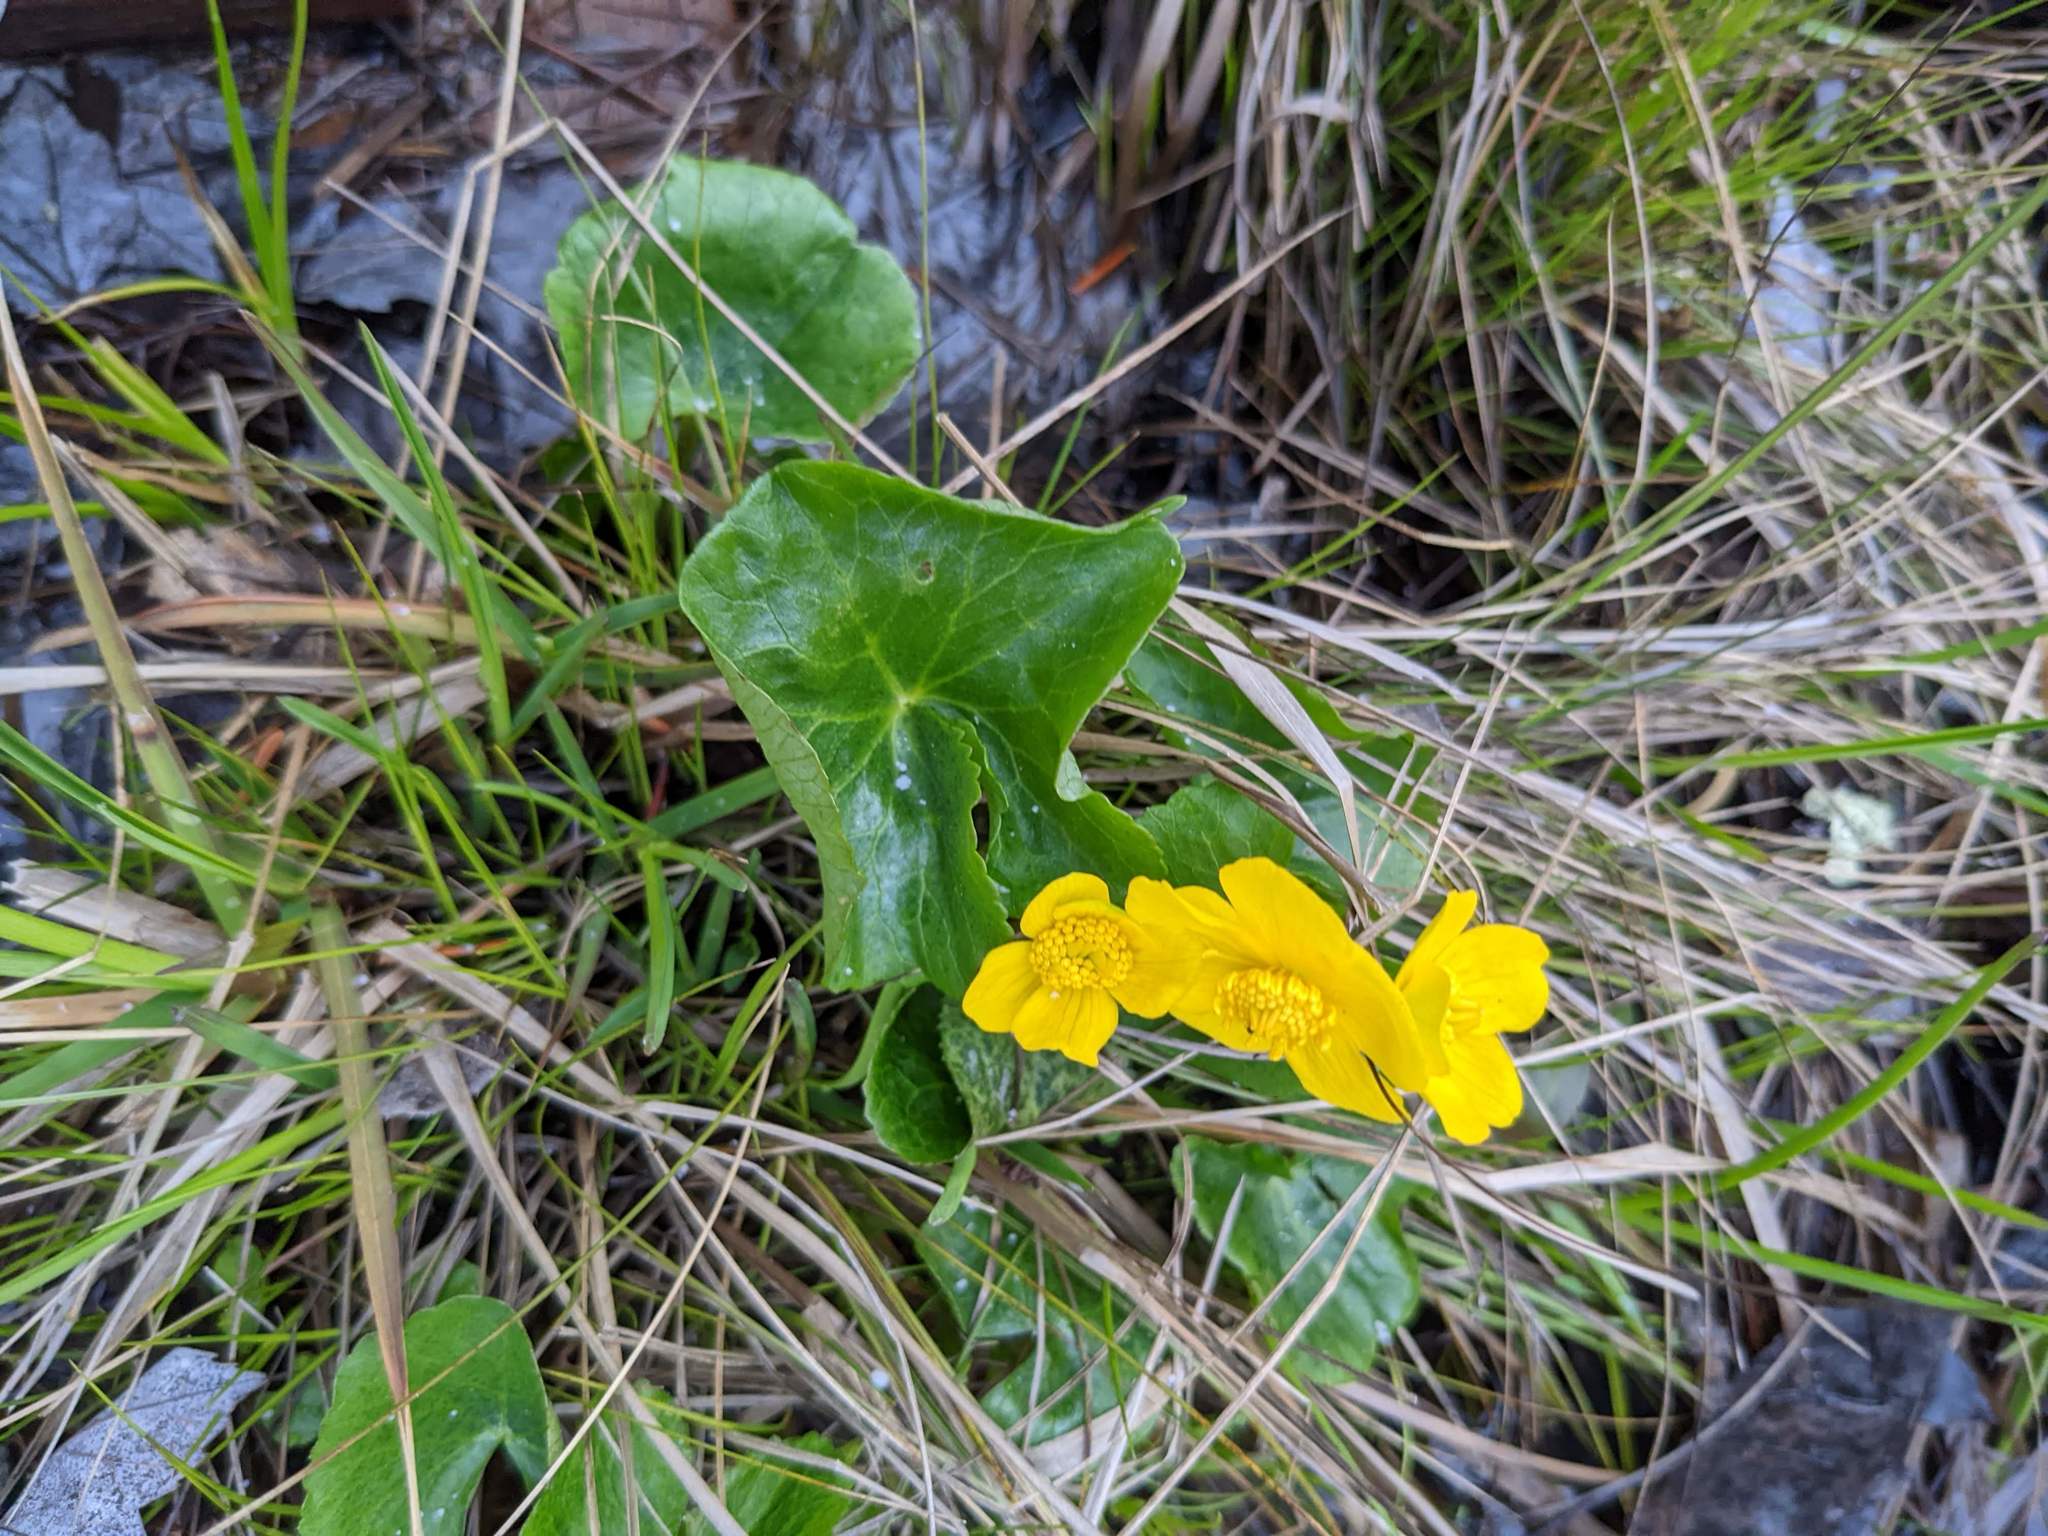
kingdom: Plantae
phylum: Tracheophyta
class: Magnoliopsida
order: Ranunculales
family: Ranunculaceae
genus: Caltha
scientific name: Caltha palustris
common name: Marsh marigold
